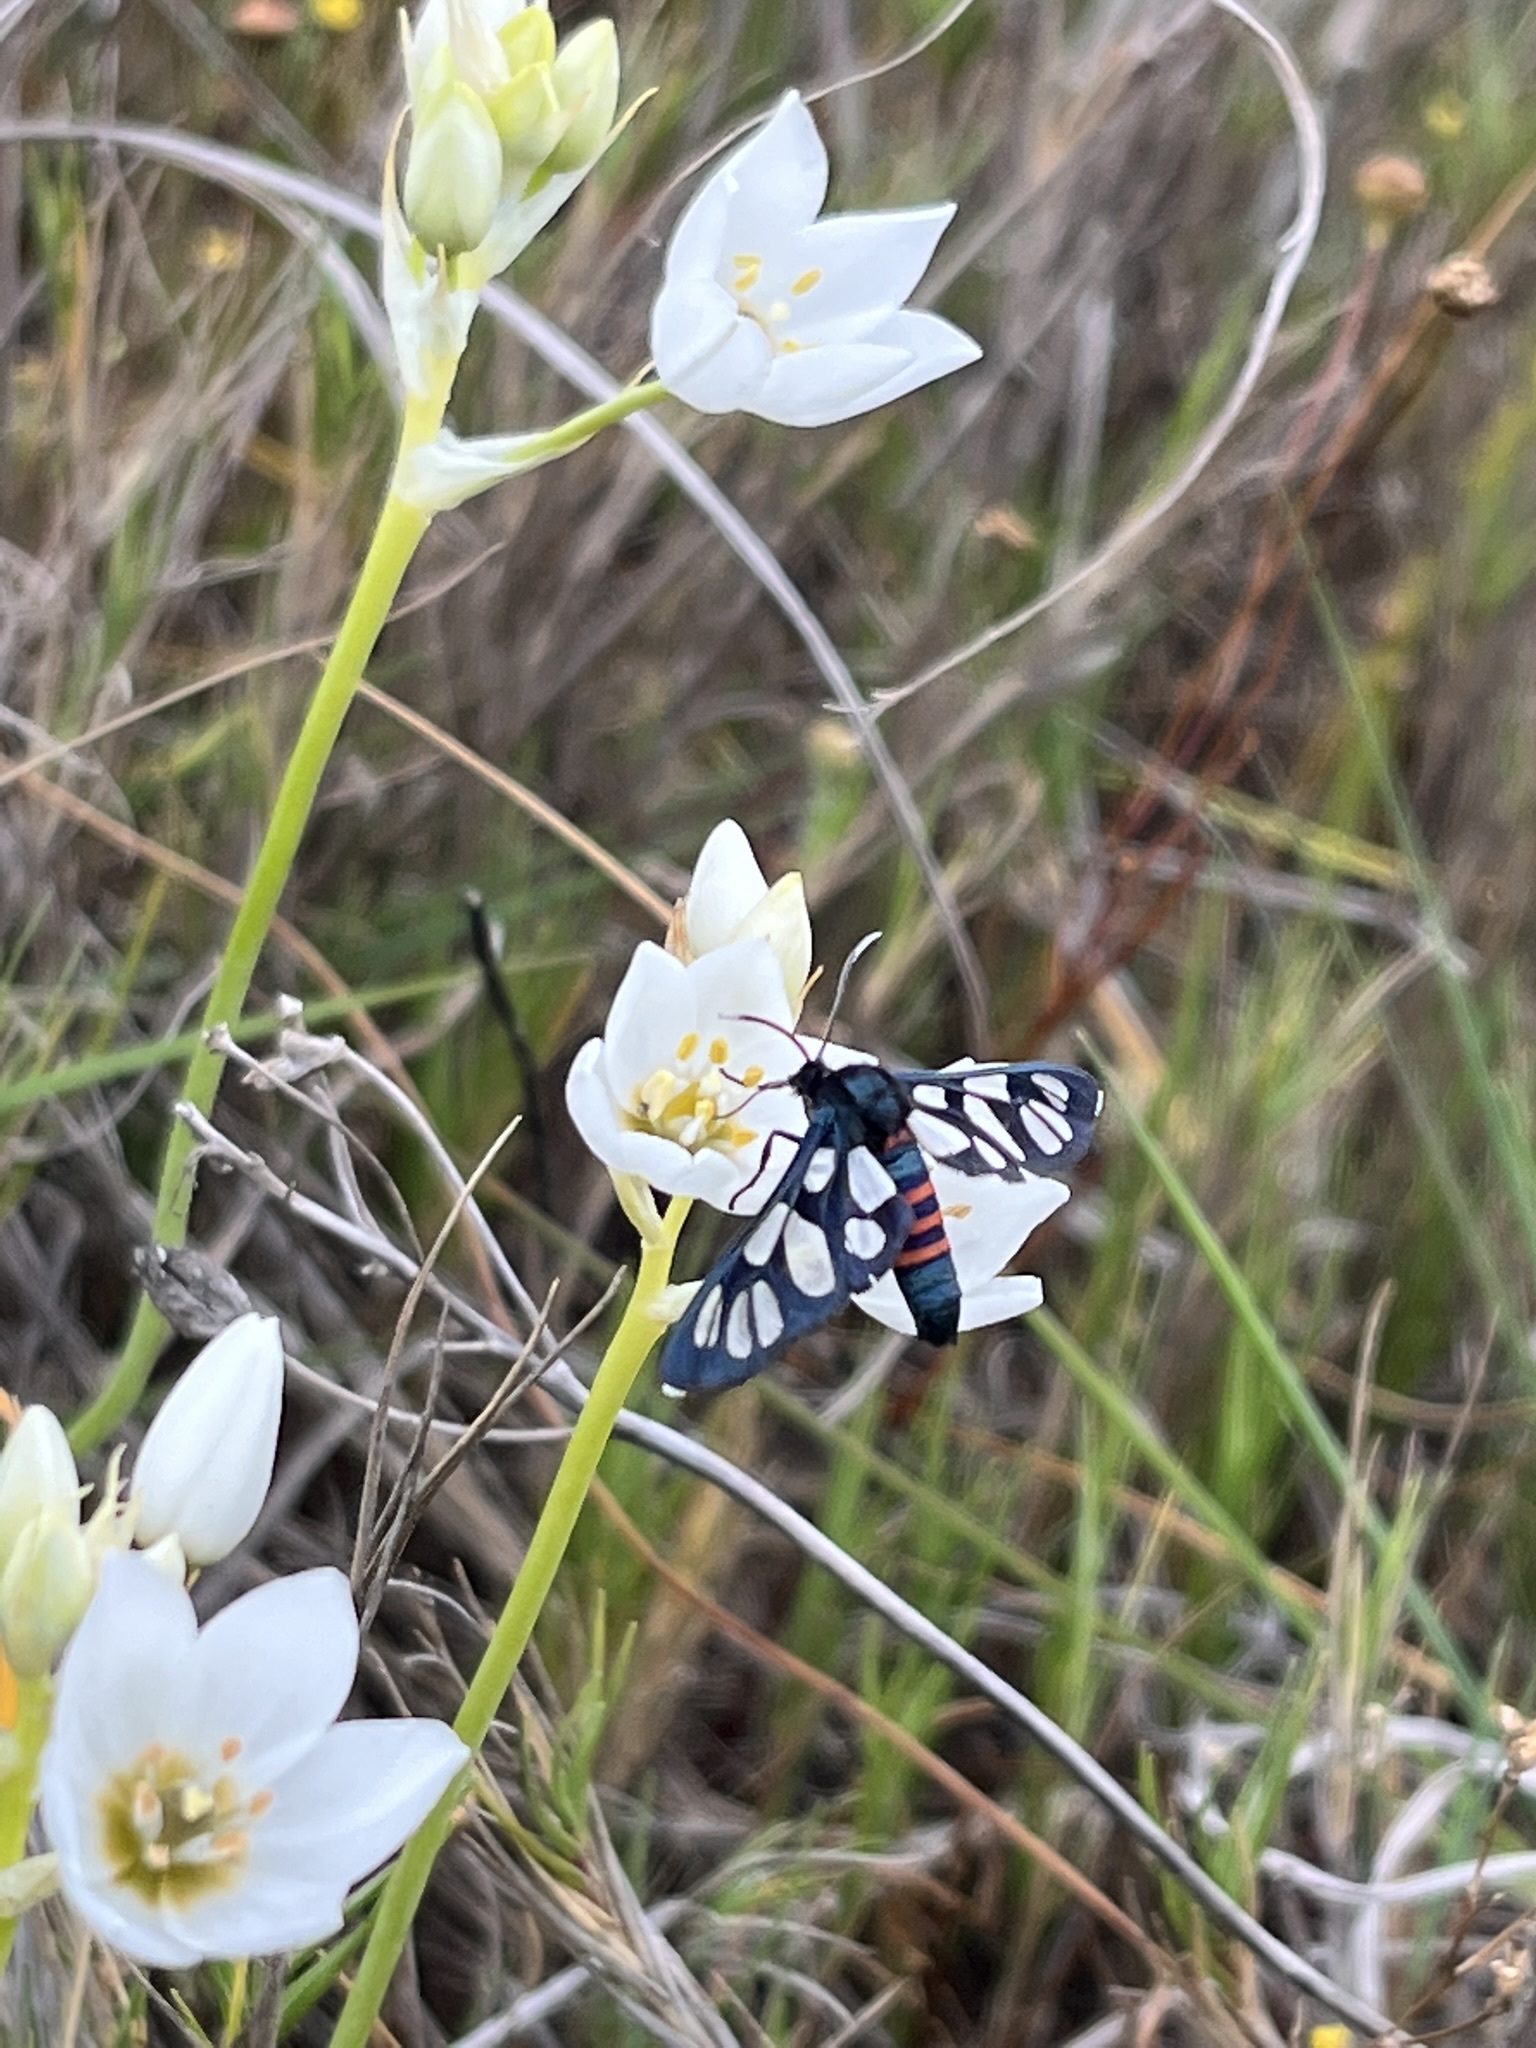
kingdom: Animalia
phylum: Arthropoda
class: Insecta
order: Lepidoptera
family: Erebidae
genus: Amata
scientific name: Amata cerbera
